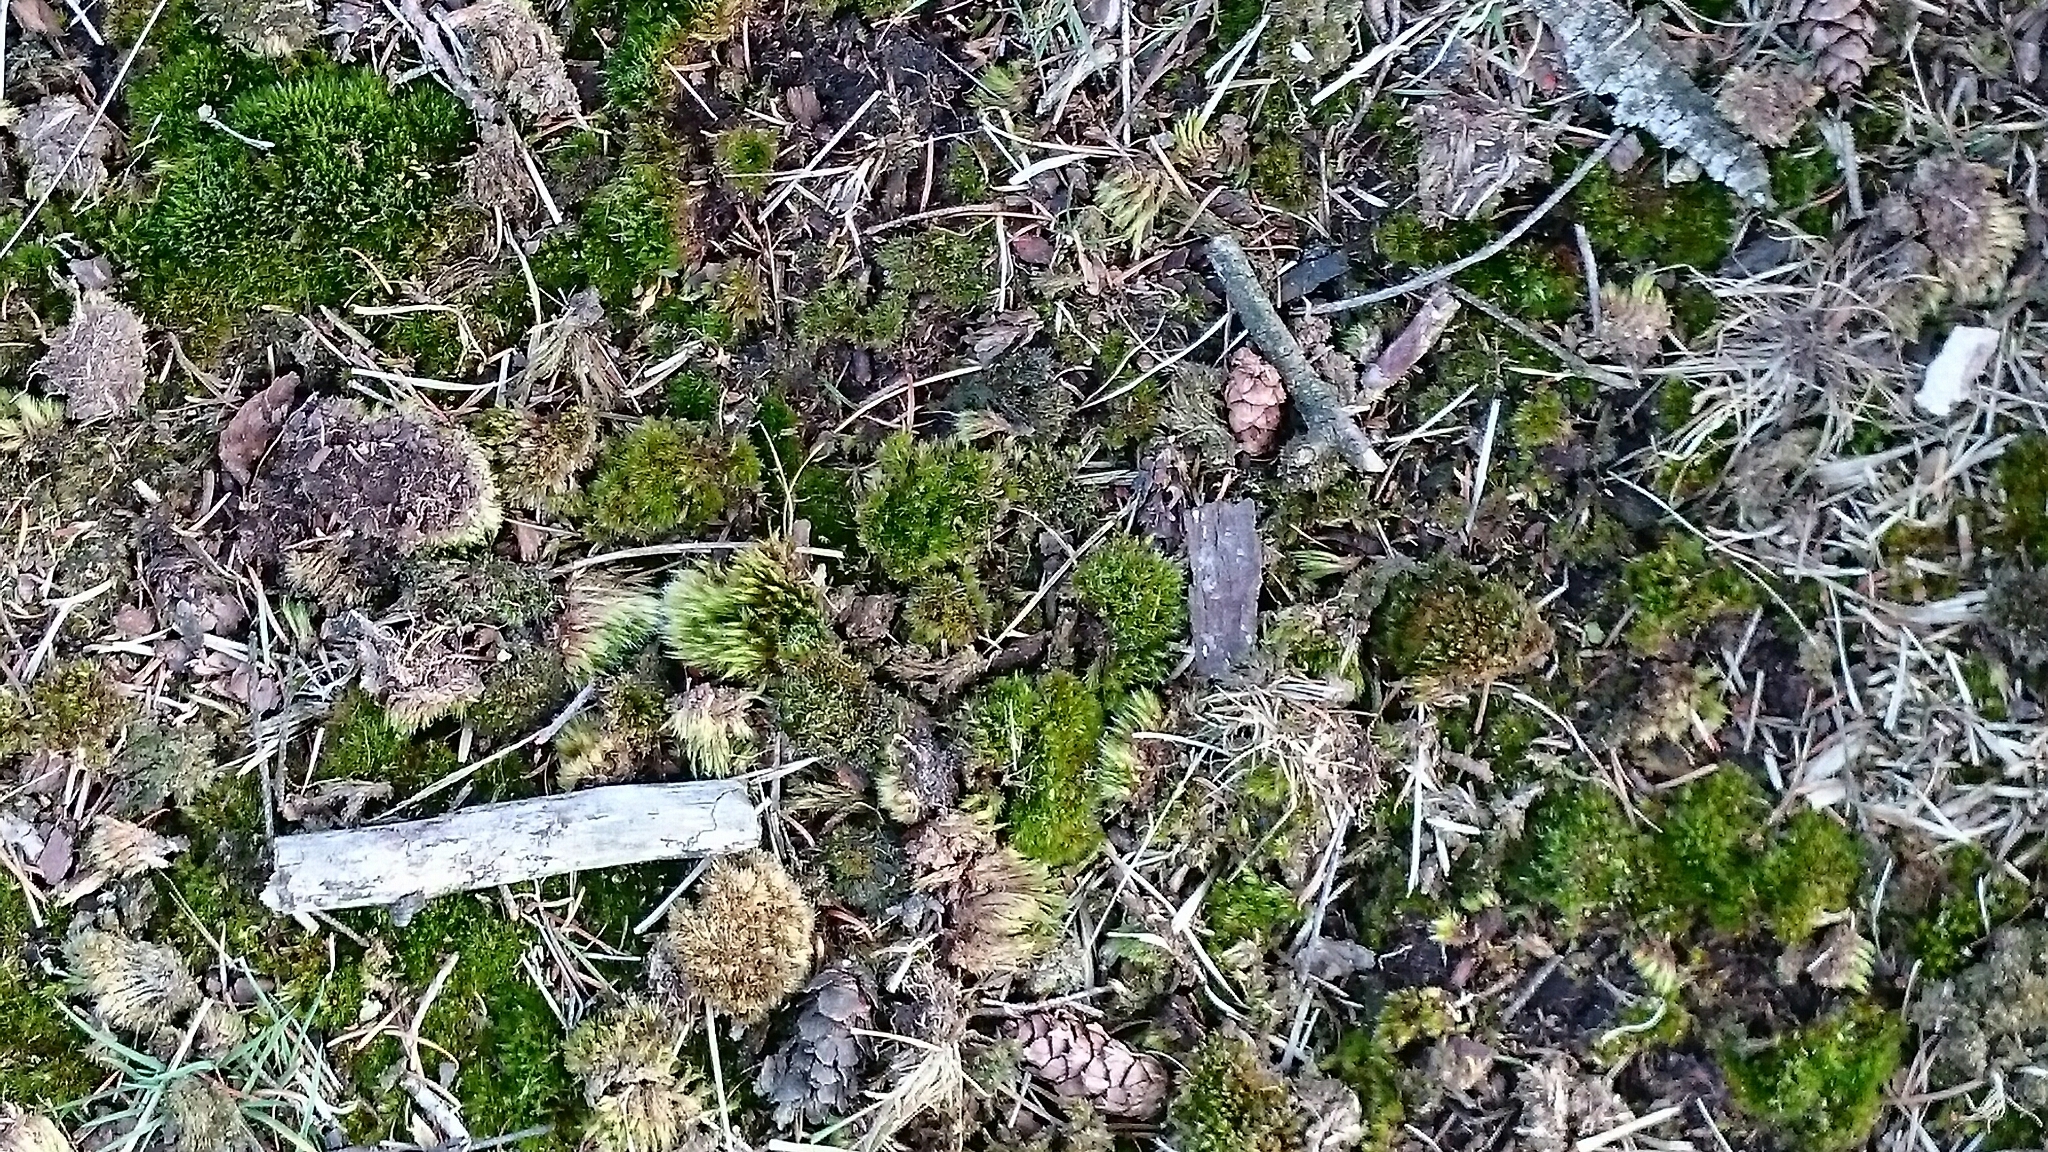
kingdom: Plantae
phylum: Bryophyta
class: Bryopsida
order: Dicranales
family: Leucobryaceae
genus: Campylopus
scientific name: Campylopus introflexus
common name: Heath star moss
